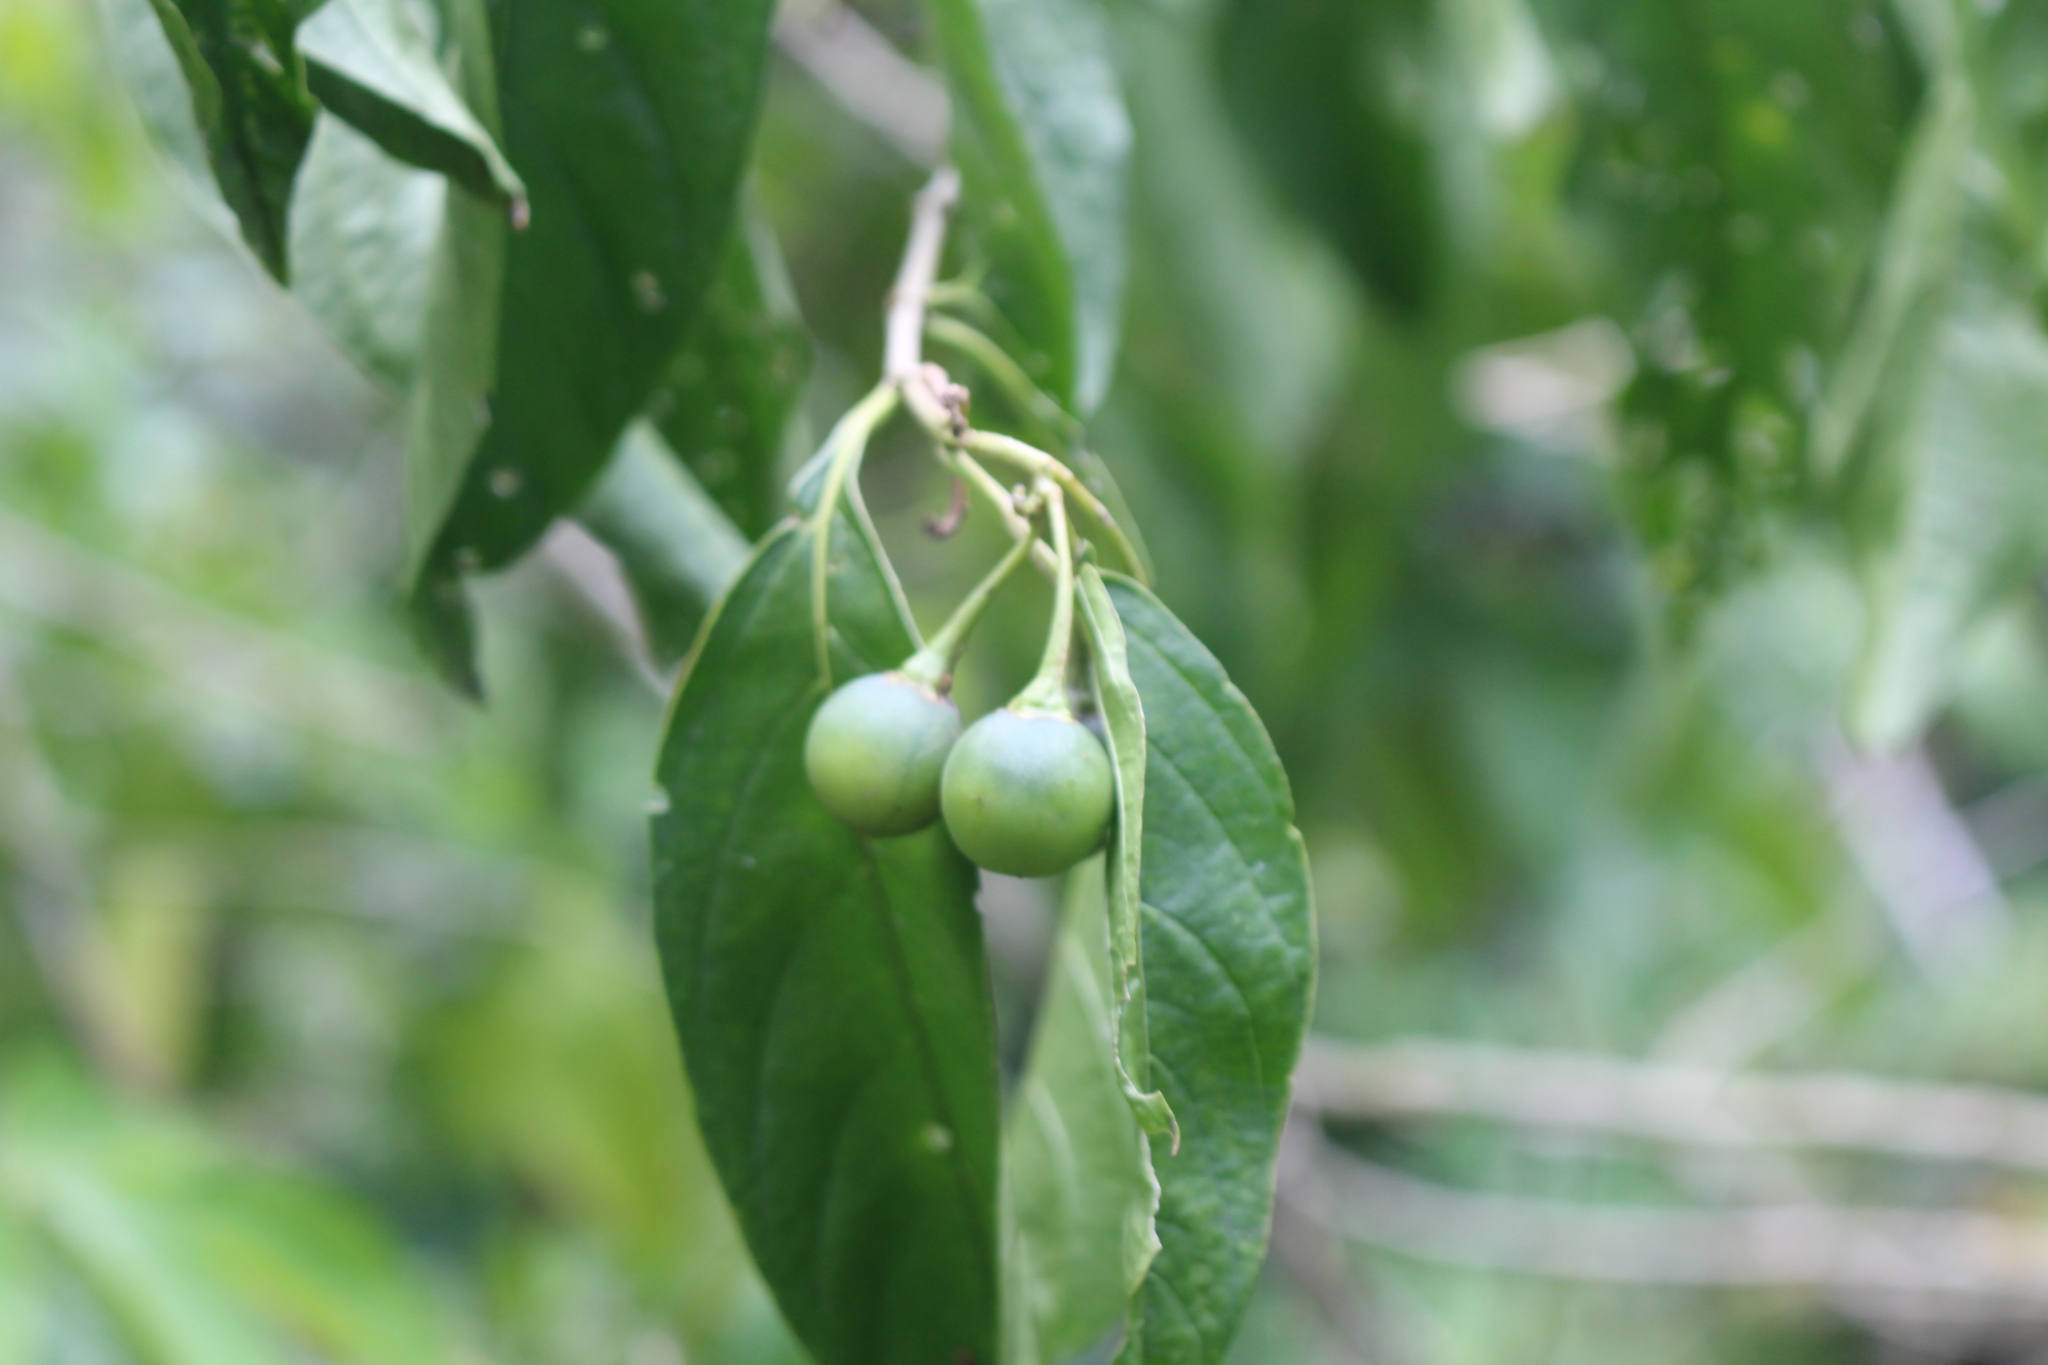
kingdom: Plantae
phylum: Tracheophyta
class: Magnoliopsida
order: Solanales
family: Solanaceae
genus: Solanum
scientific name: Solanum aphyodendron
